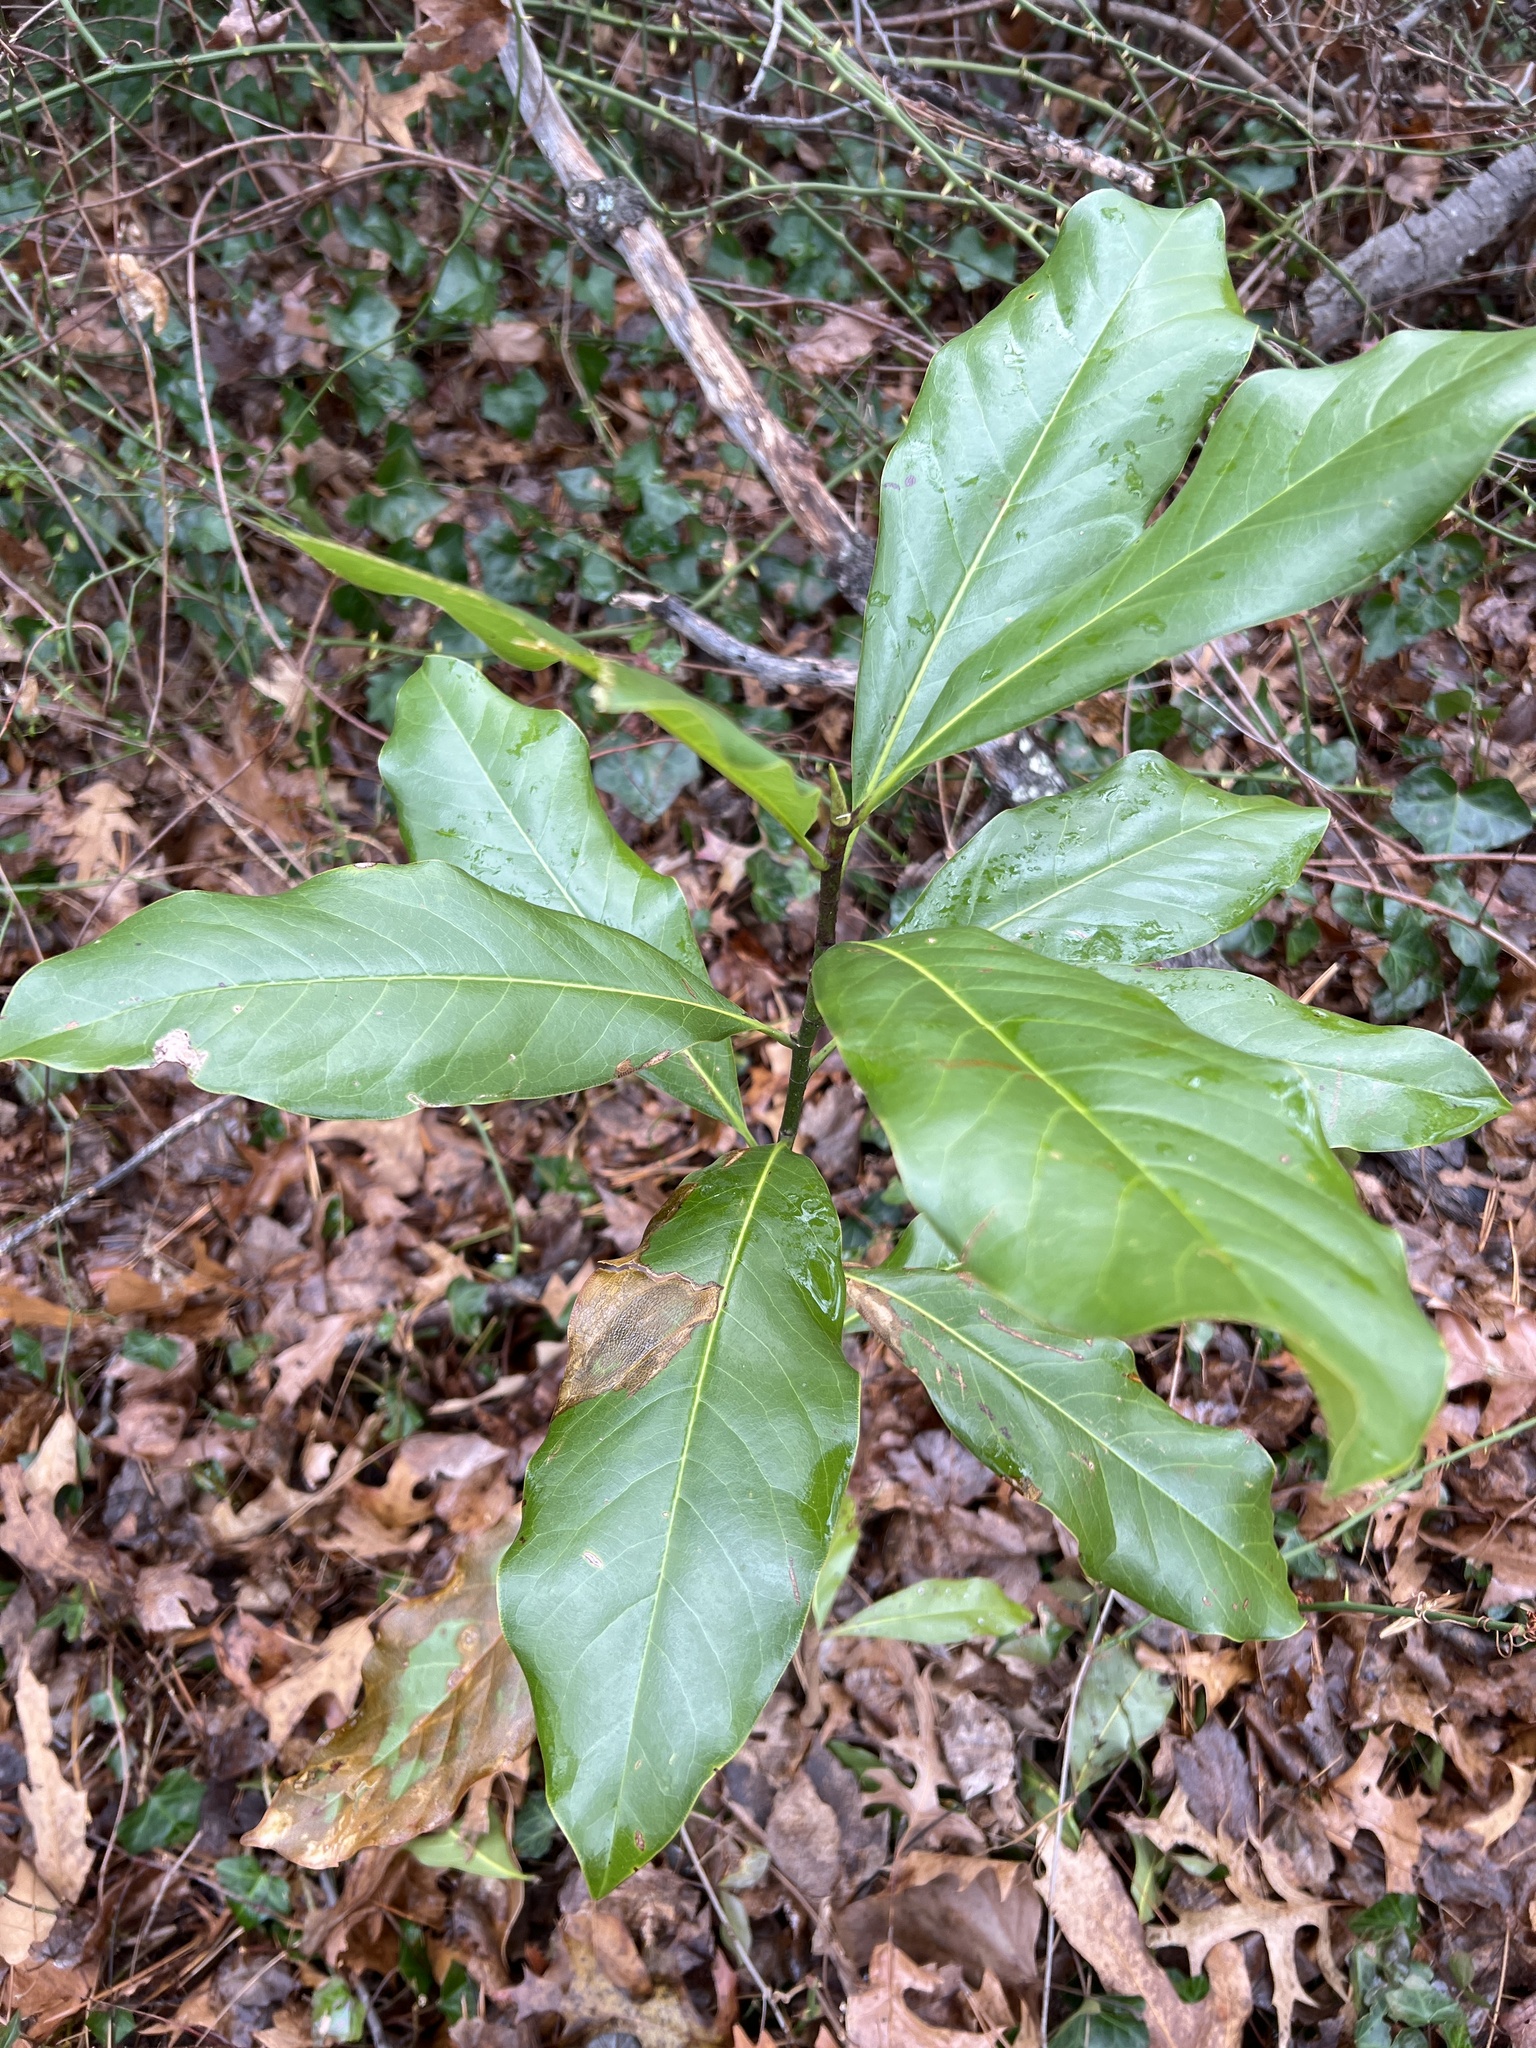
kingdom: Plantae
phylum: Tracheophyta
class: Magnoliopsida
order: Magnoliales
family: Magnoliaceae
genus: Magnolia
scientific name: Magnolia grandiflora
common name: Southern magnolia
